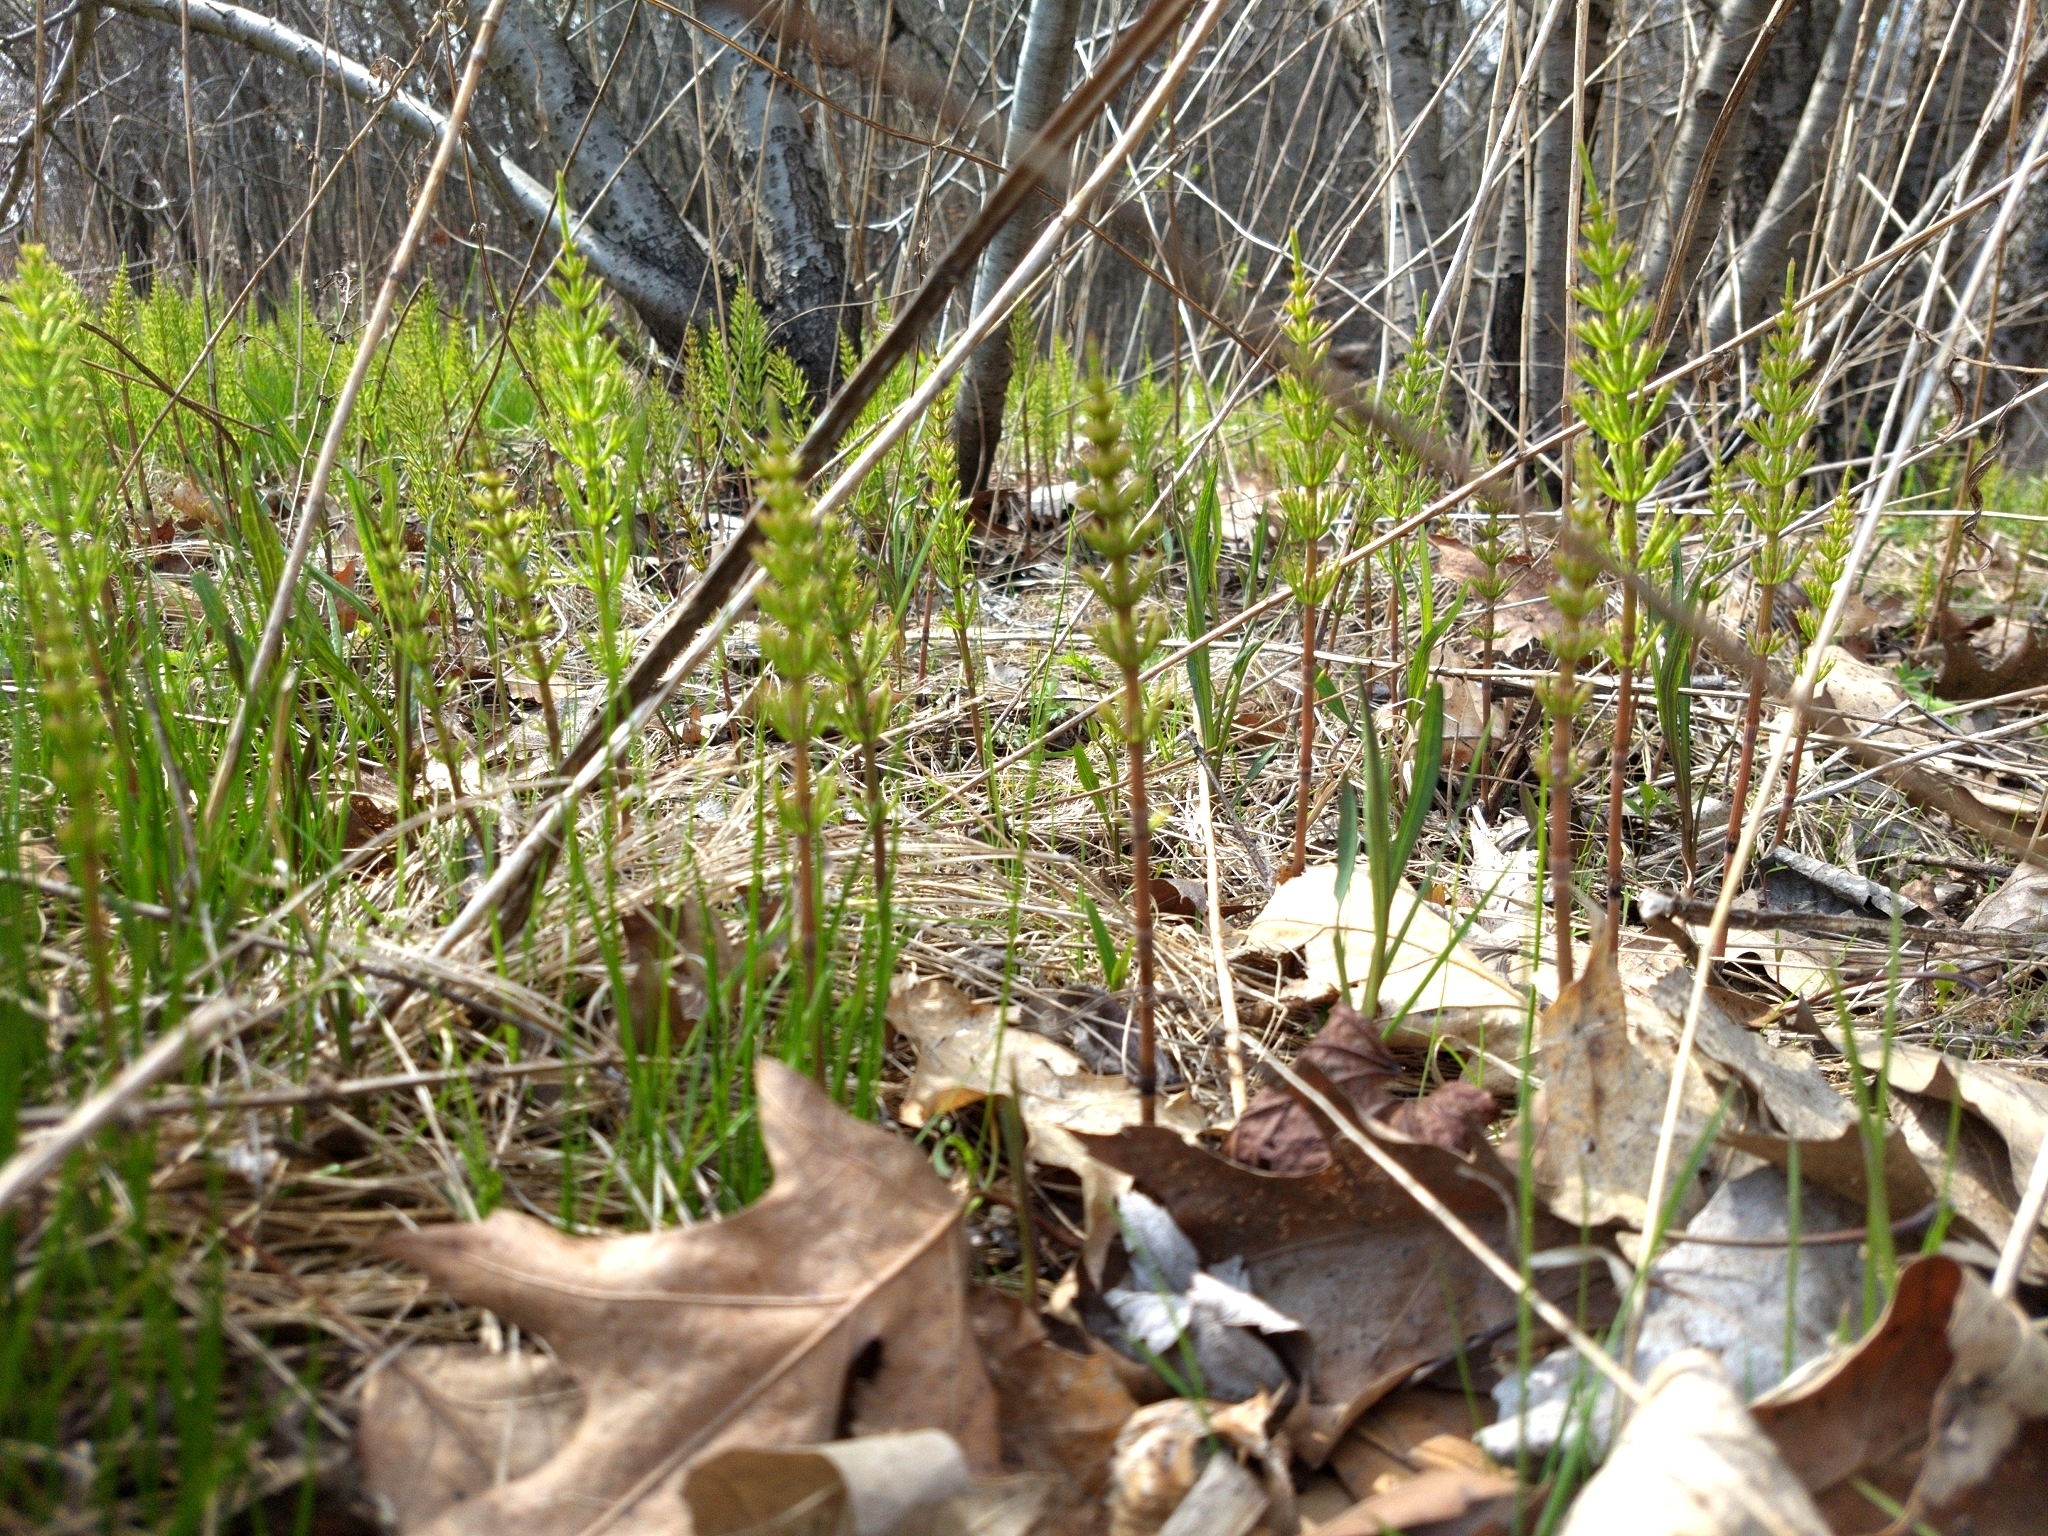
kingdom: Plantae
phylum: Tracheophyta
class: Polypodiopsida
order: Equisetales
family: Equisetaceae
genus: Equisetum
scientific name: Equisetum arvense
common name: Field horsetail
